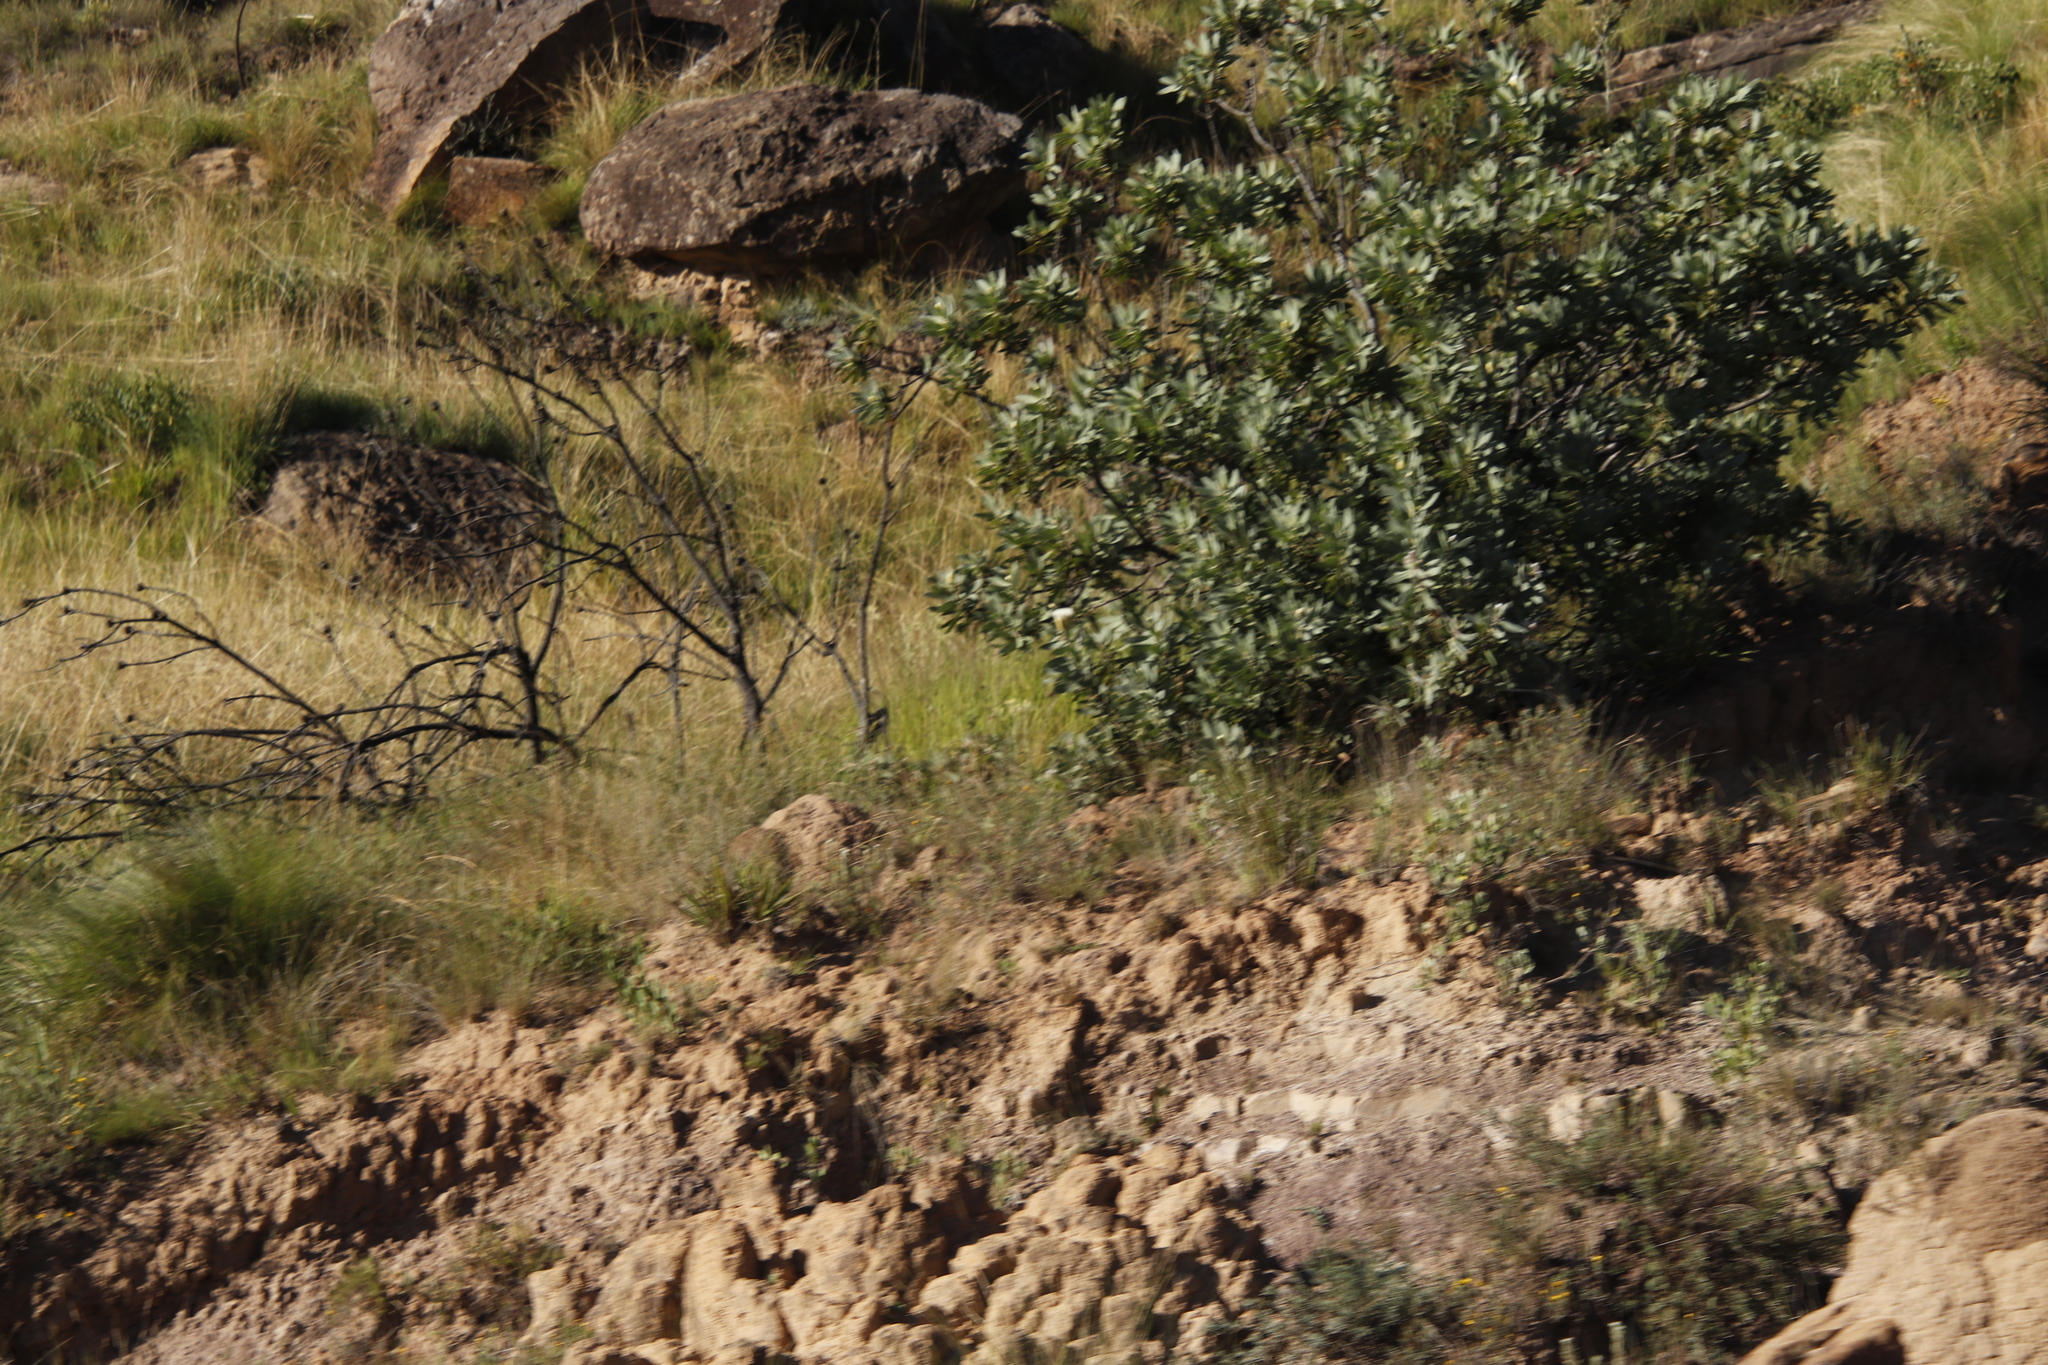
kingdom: Plantae
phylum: Tracheophyta
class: Magnoliopsida
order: Proteales
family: Proteaceae
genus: Protea
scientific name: Protea subvestita
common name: Lip-flower sugarbush
